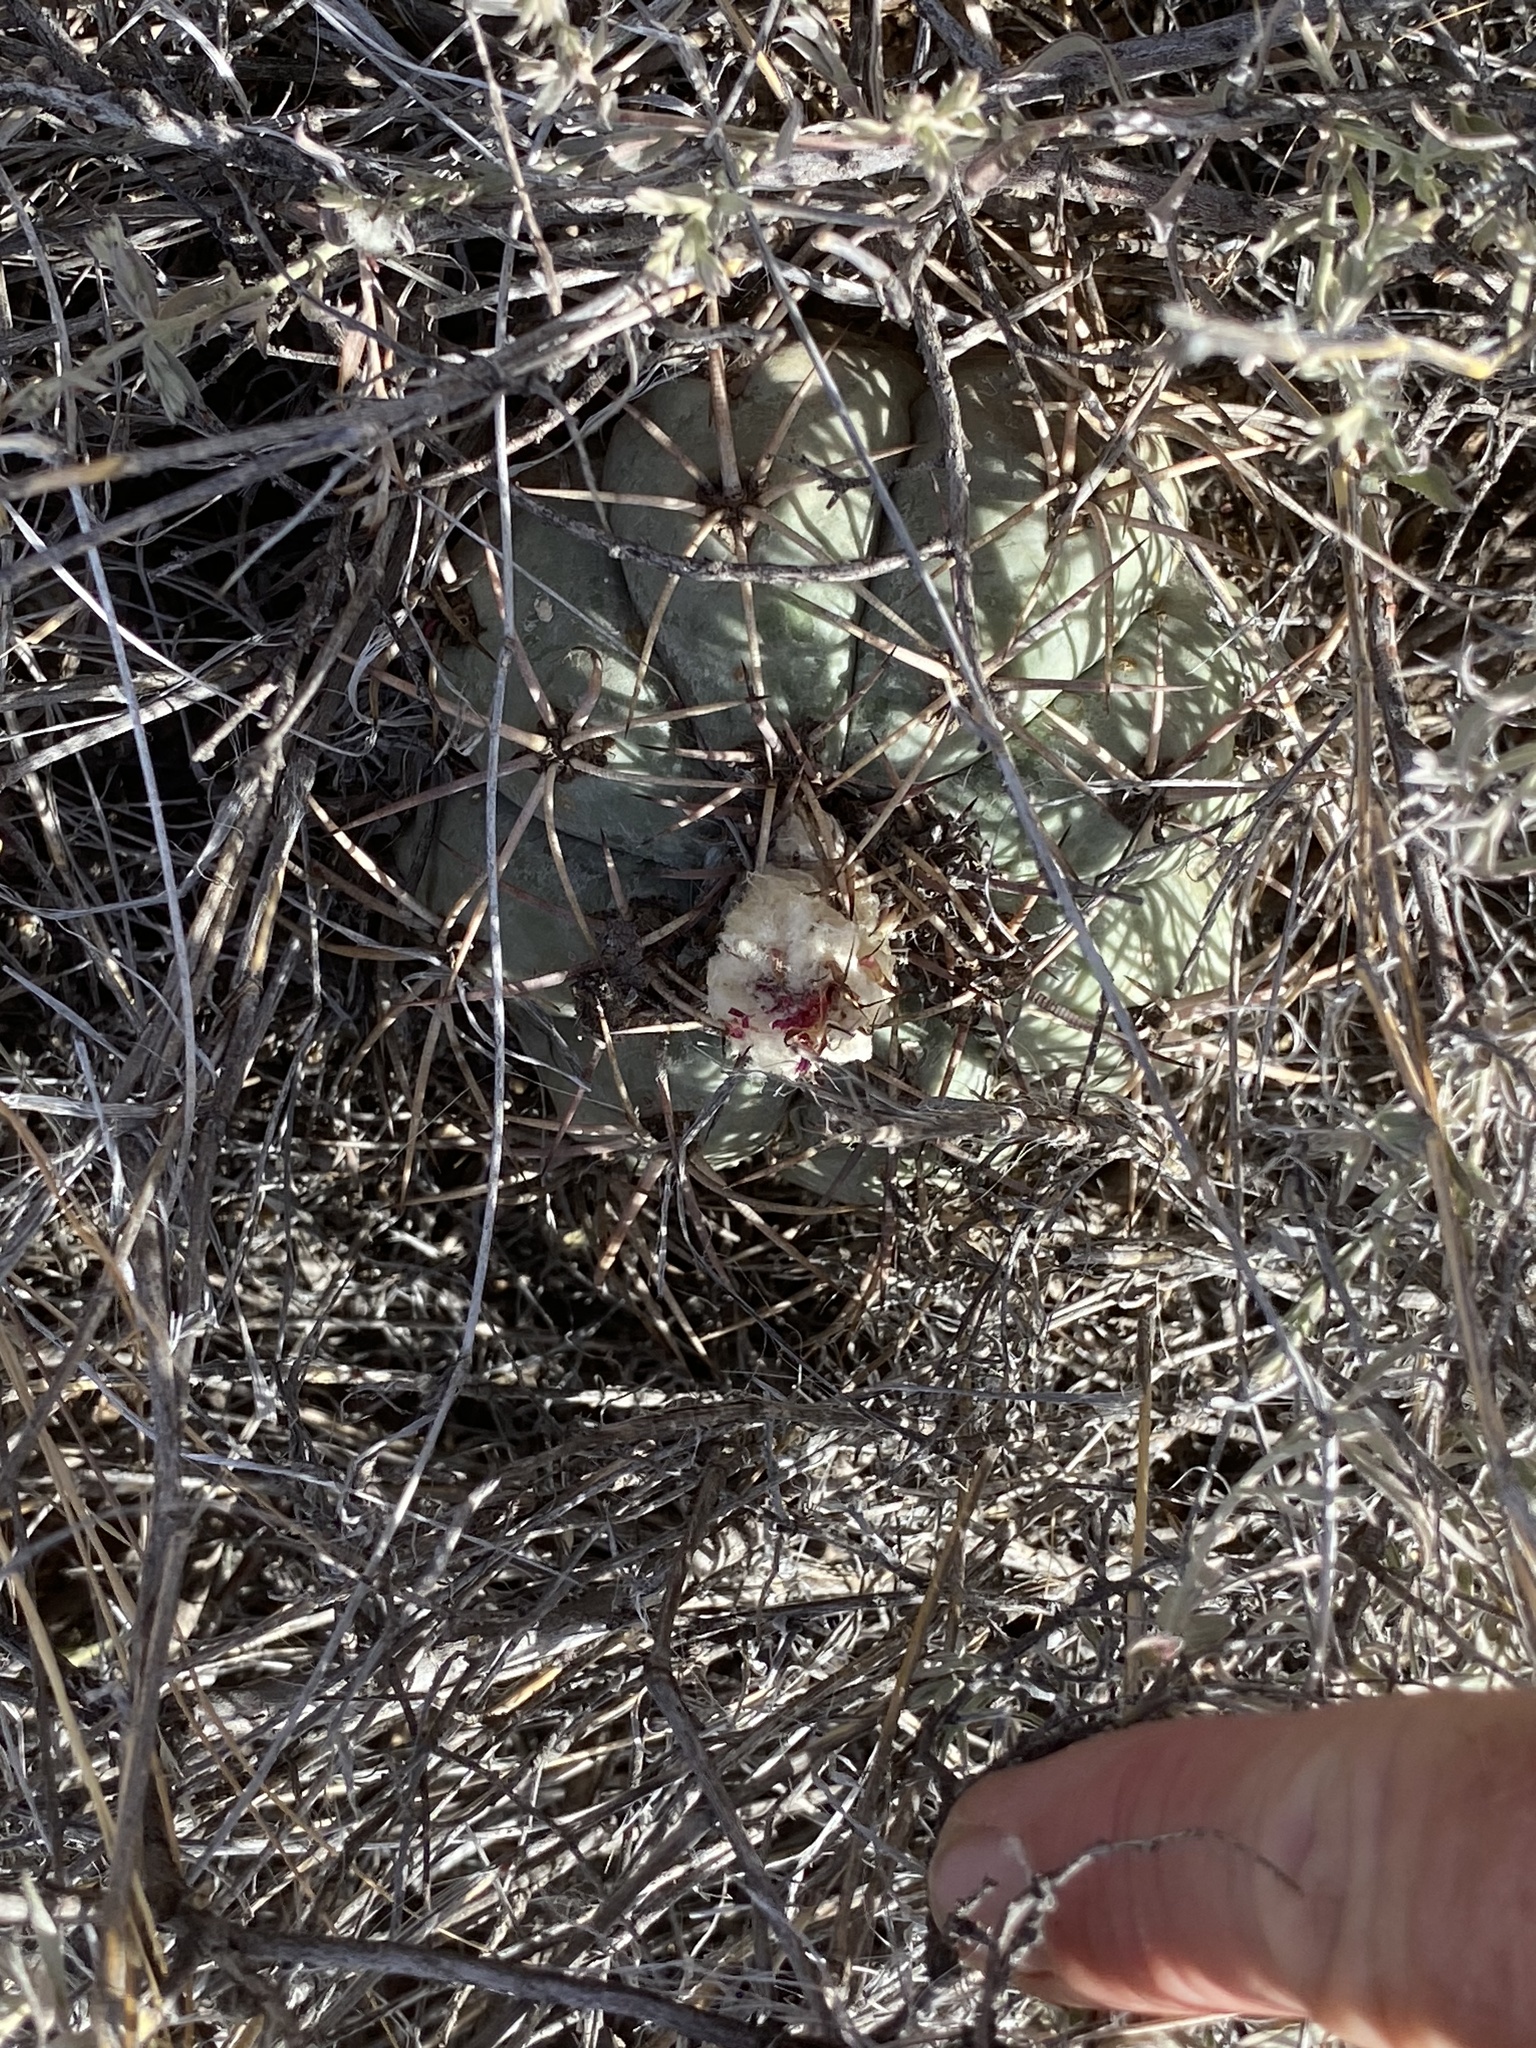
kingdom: Plantae
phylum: Tracheophyta
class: Magnoliopsida
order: Caryophyllales
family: Cactaceae
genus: Echinocactus
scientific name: Echinocactus horizonthalonius
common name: Devilshead
